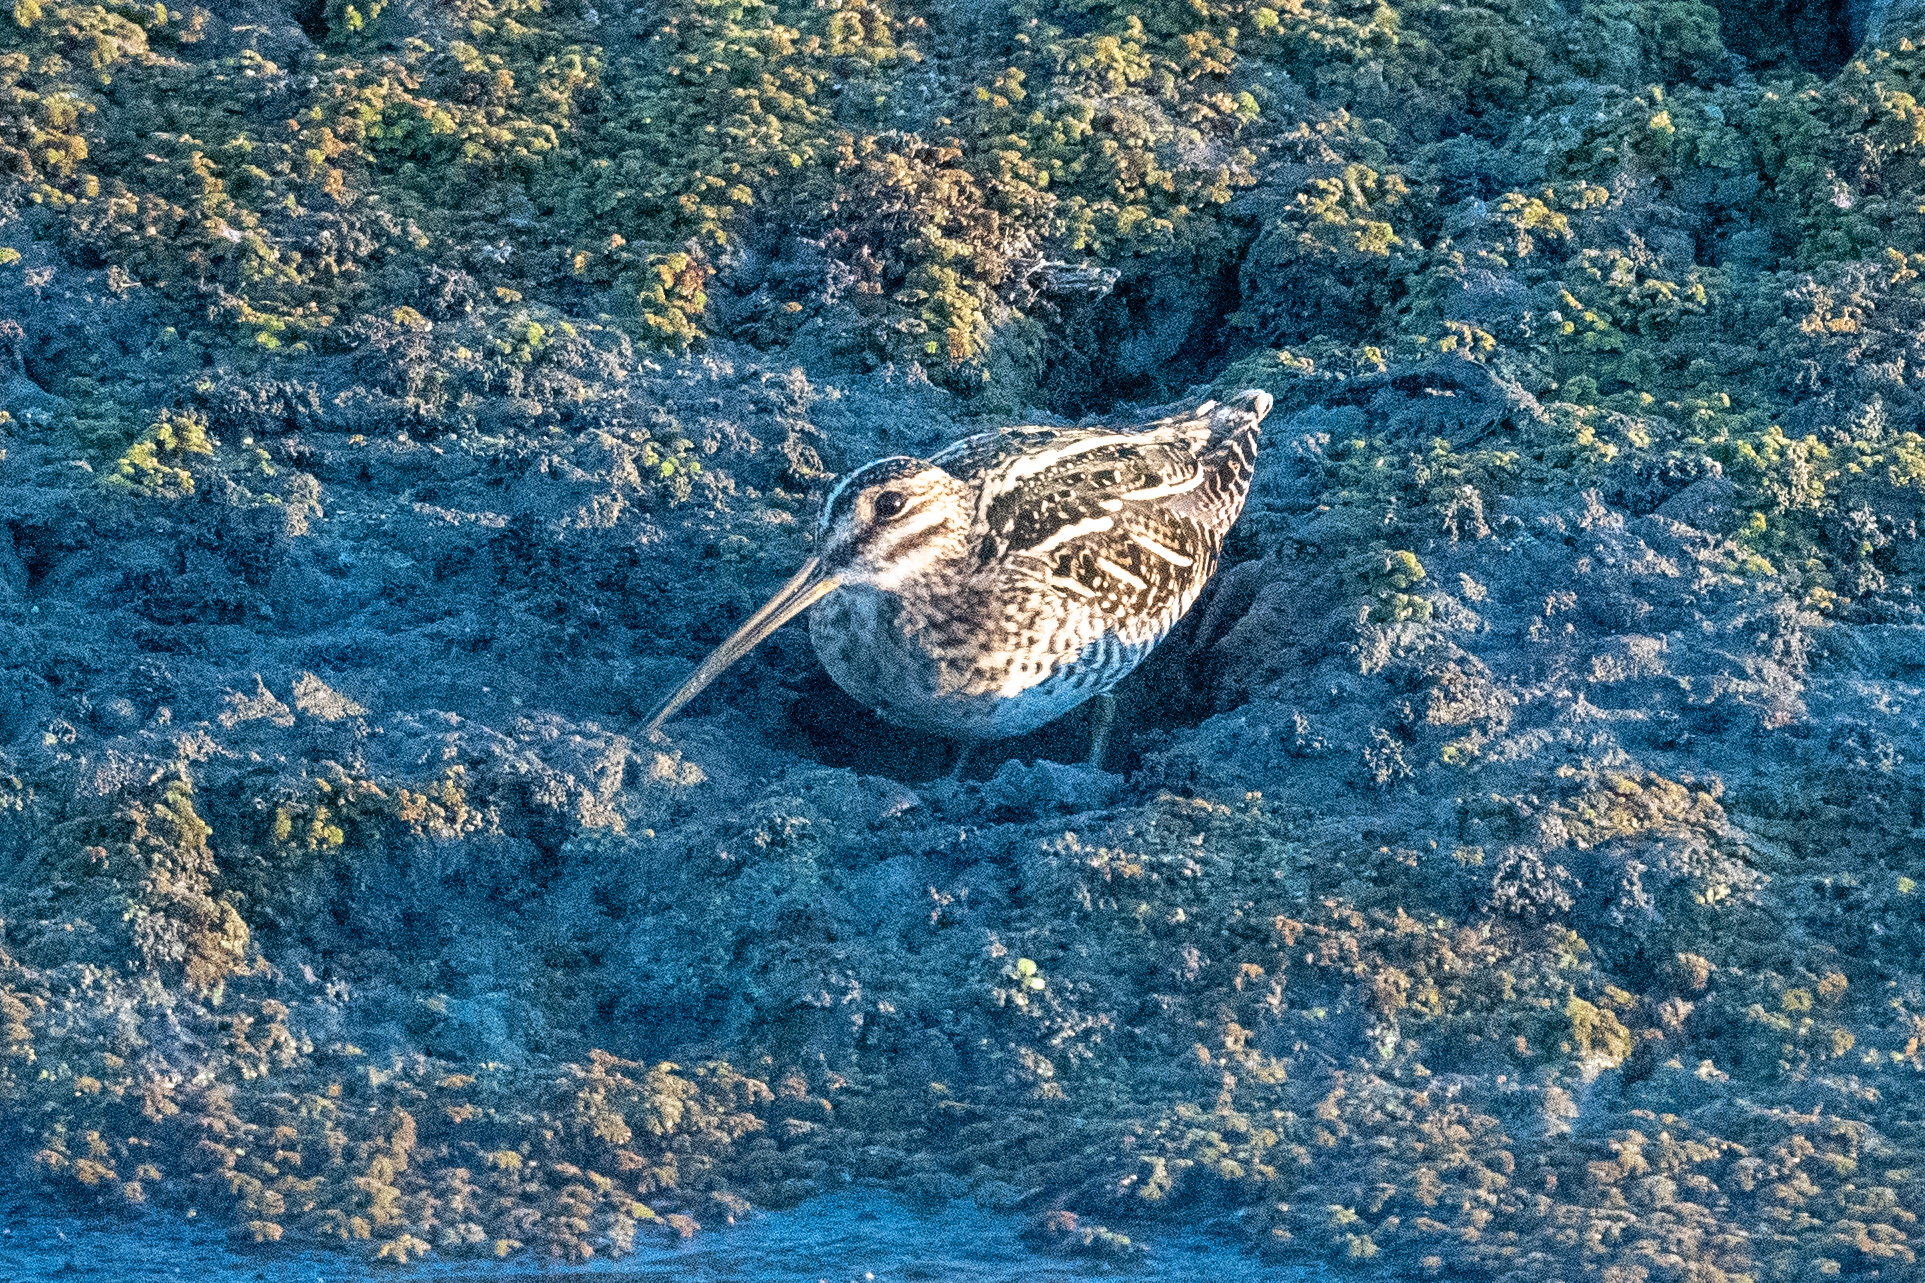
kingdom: Animalia
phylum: Chordata
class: Aves
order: Charadriiformes
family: Scolopacidae
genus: Gallinago
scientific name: Gallinago delicata
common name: Wilson's snipe
